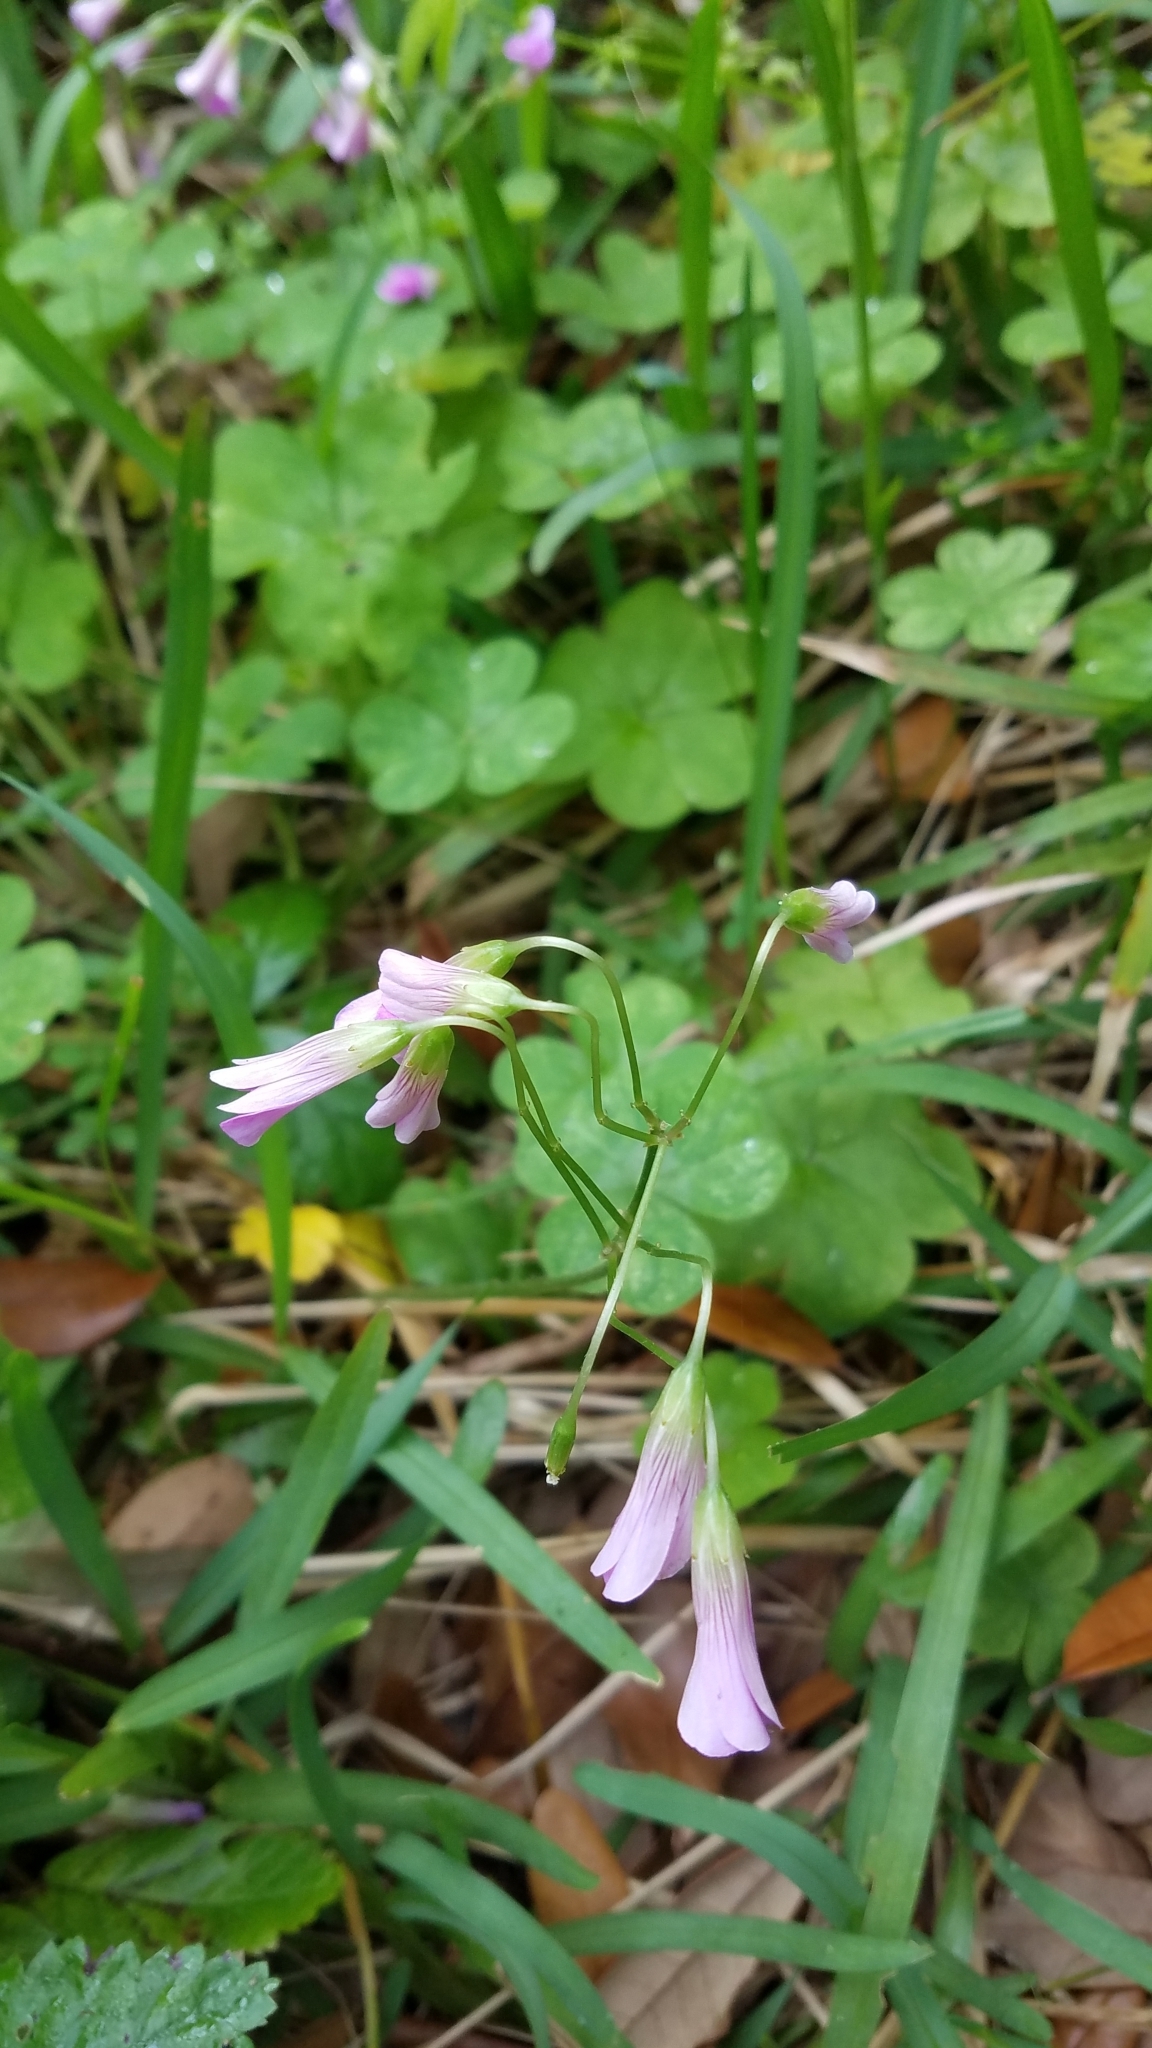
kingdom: Plantae
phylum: Tracheophyta
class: Magnoliopsida
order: Oxalidales
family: Oxalidaceae
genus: Oxalis
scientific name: Oxalis debilis
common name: Large-flowered pink-sorrel
